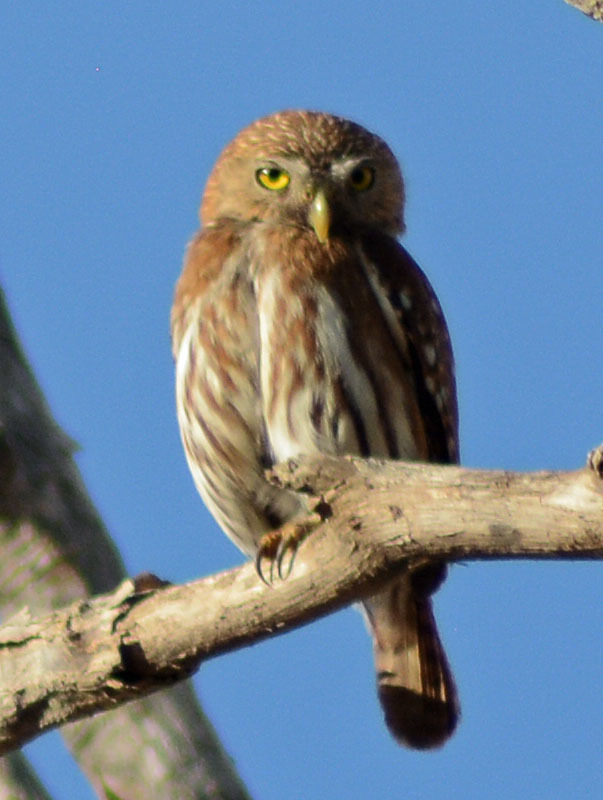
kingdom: Animalia
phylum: Chordata
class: Aves
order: Strigiformes
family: Strigidae
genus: Glaucidium
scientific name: Glaucidium brasilianum
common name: Ferruginous pygmy-owl
